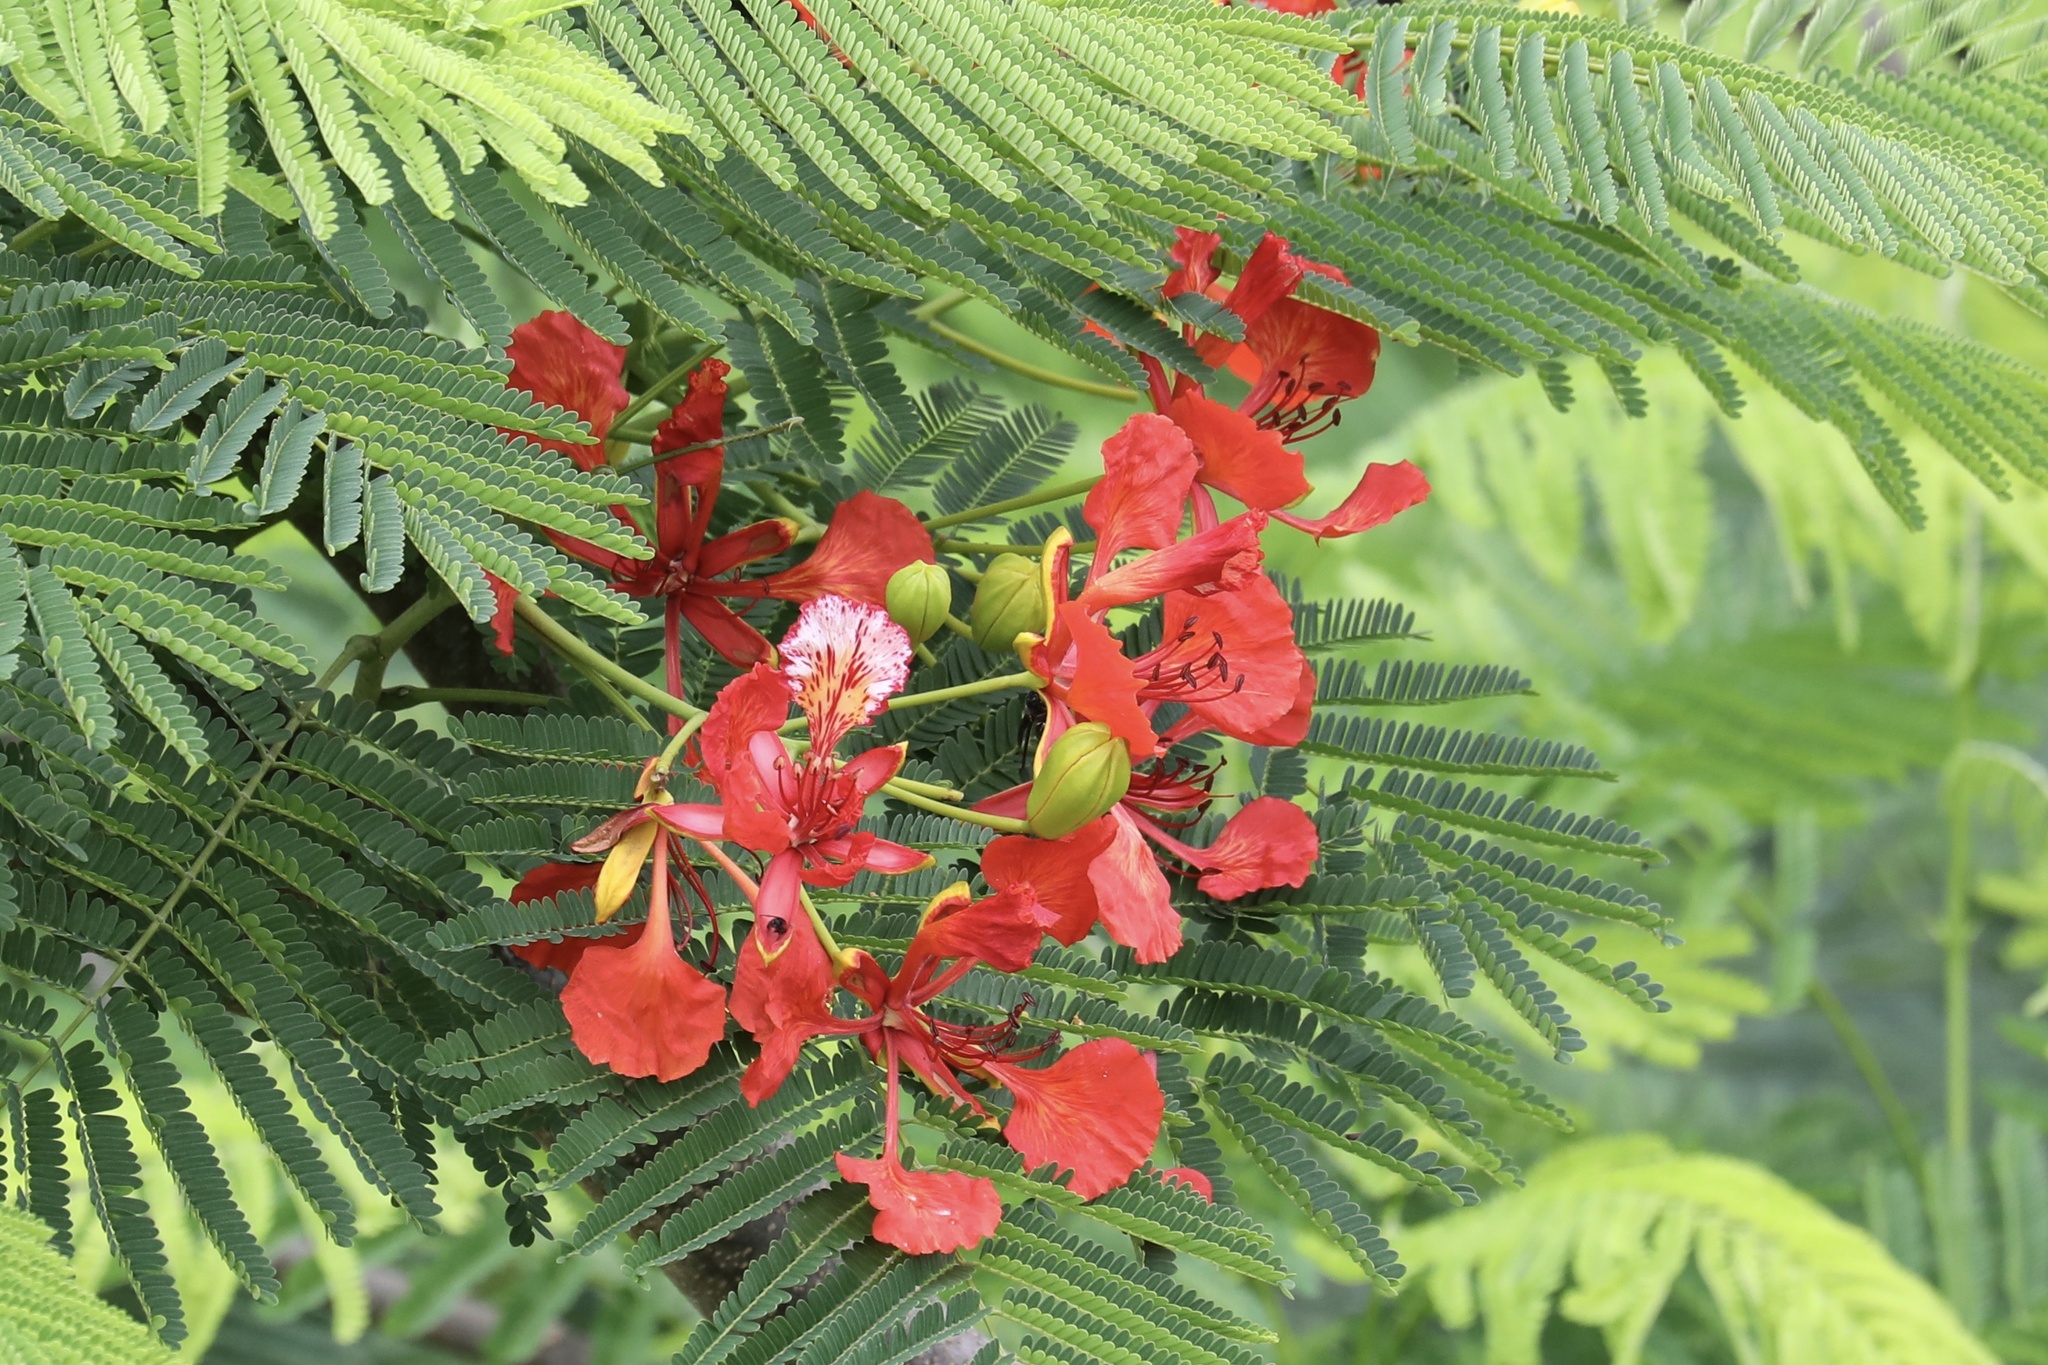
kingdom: Plantae
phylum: Tracheophyta
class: Magnoliopsida
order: Fabales
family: Fabaceae
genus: Delonix
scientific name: Delonix regia
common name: Royal poinciana
